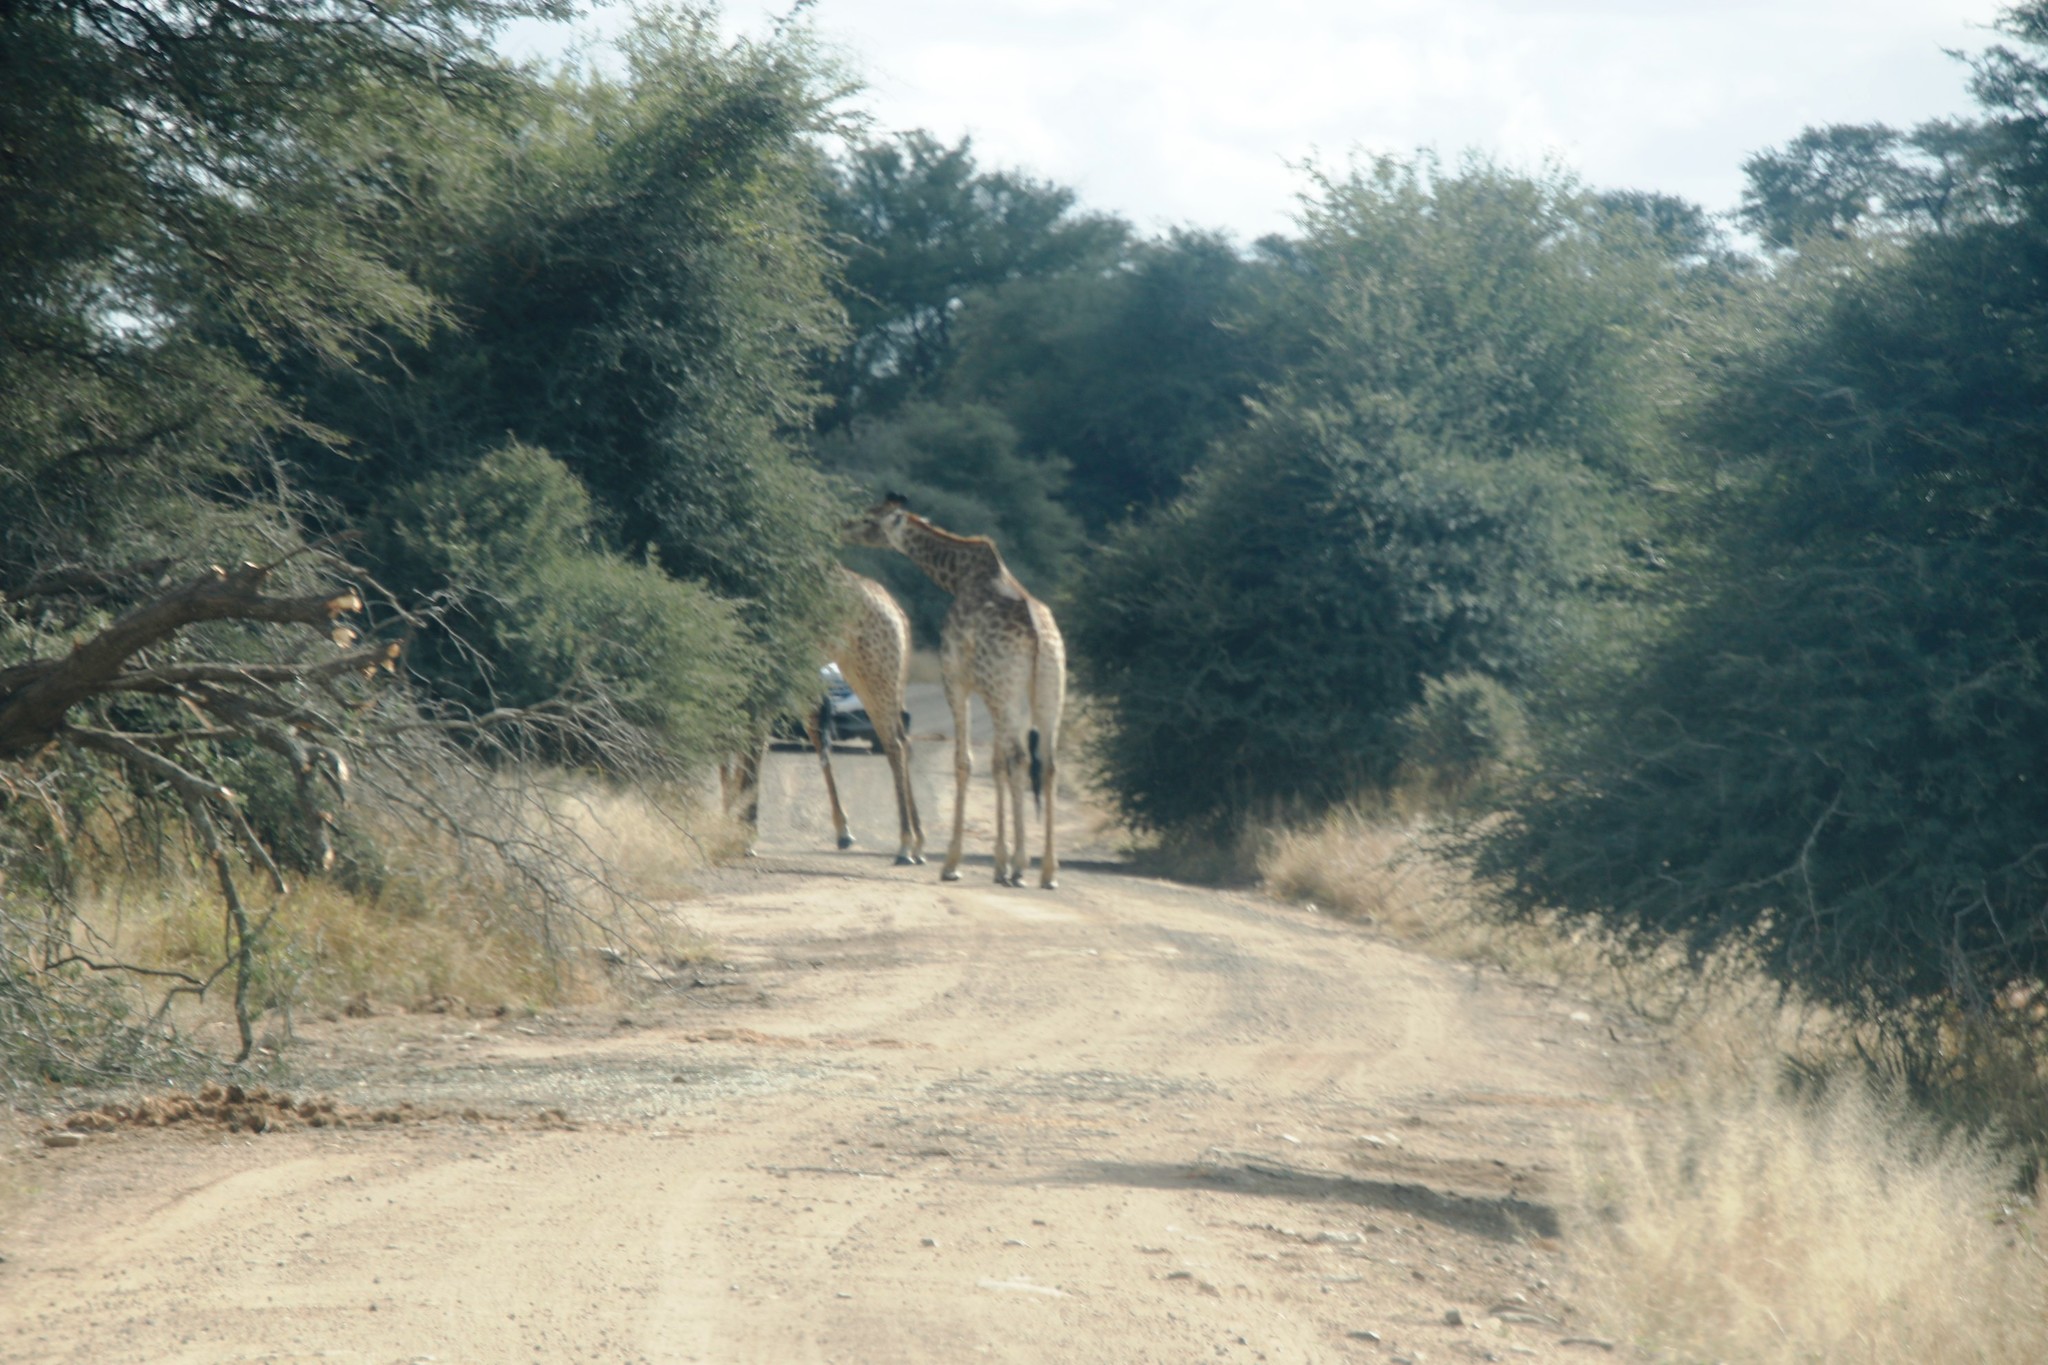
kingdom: Animalia
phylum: Chordata
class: Mammalia
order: Artiodactyla
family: Giraffidae
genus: Giraffa
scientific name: Giraffa giraffa
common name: Southern giraffe
